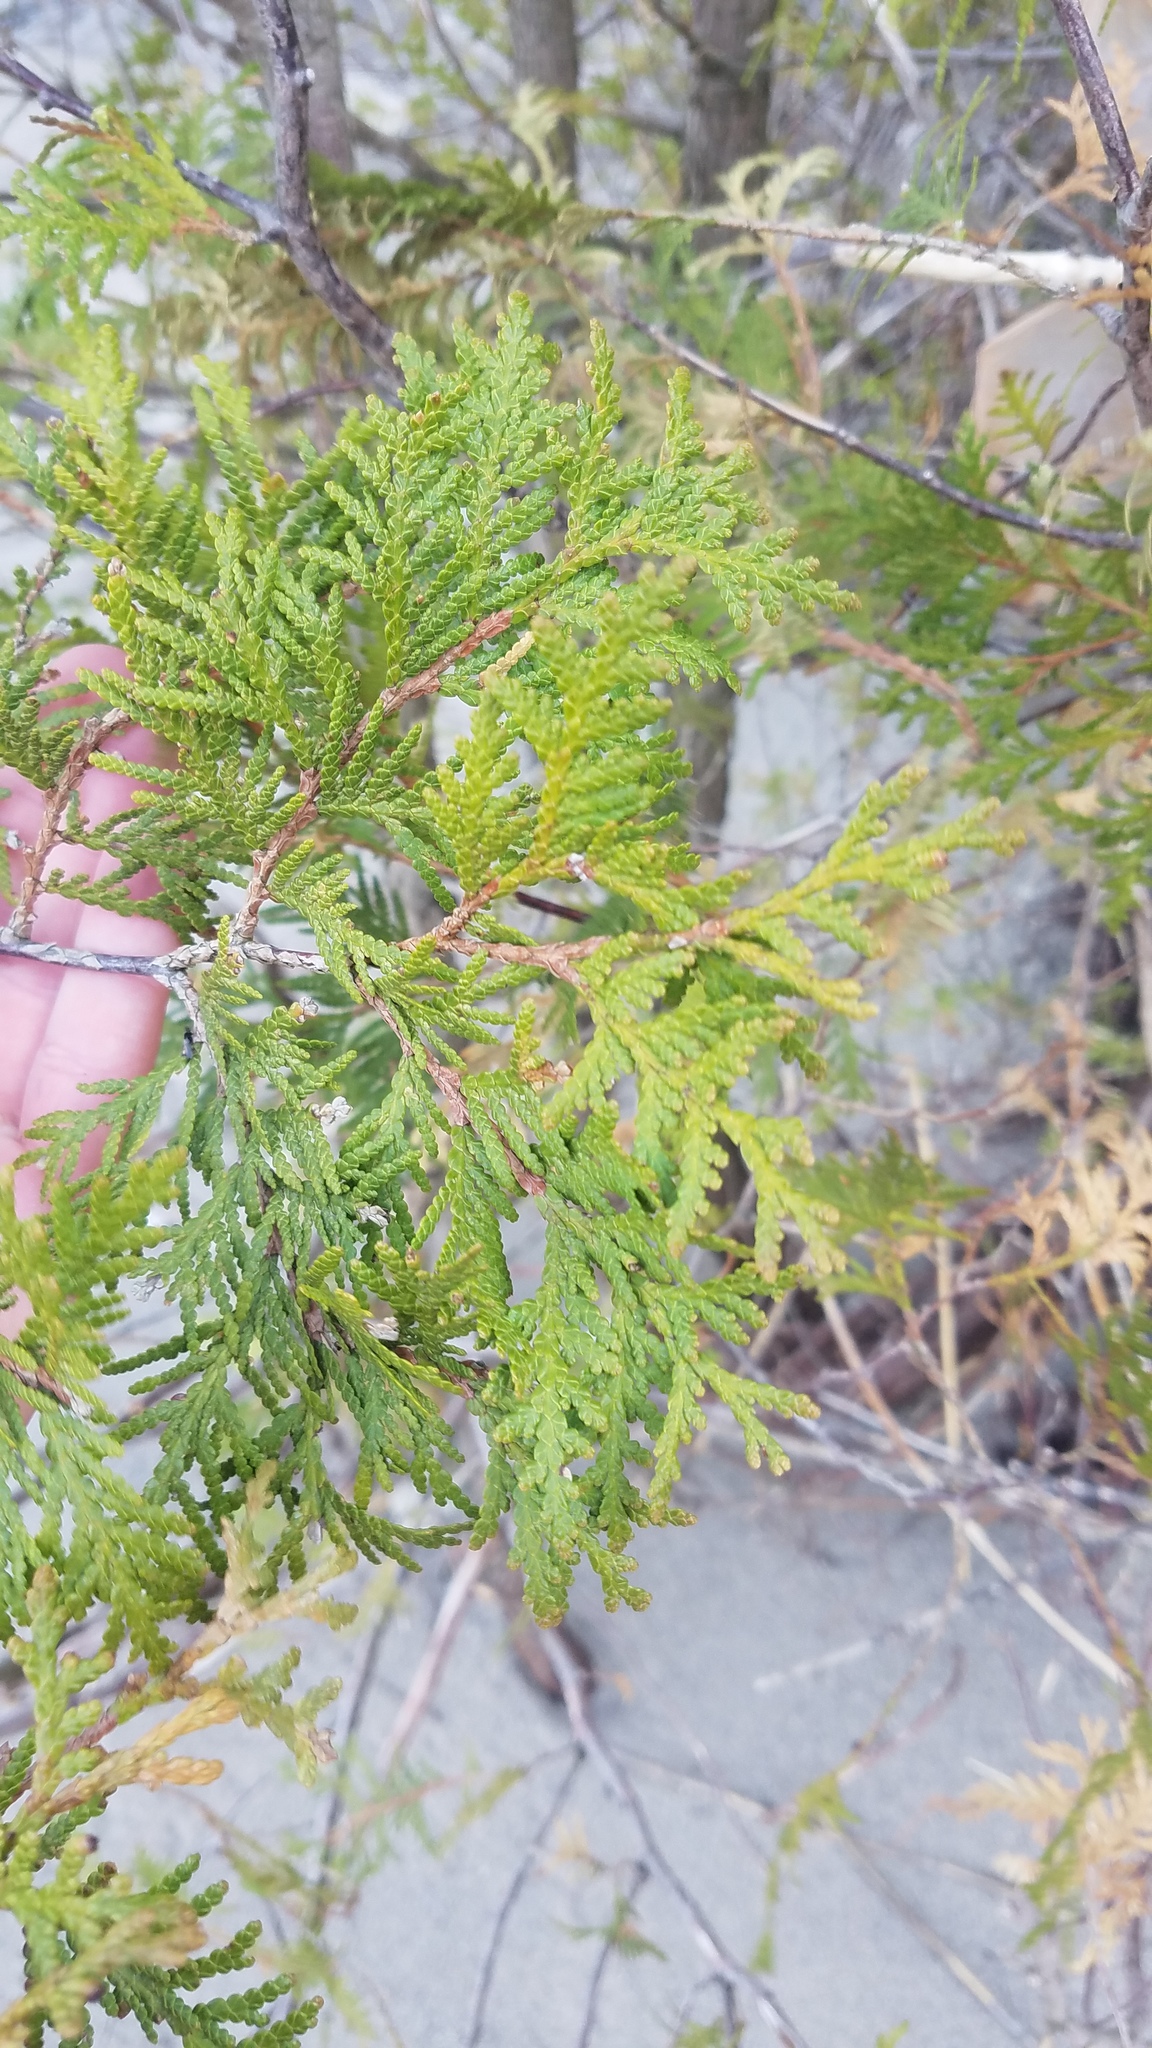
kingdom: Plantae
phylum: Tracheophyta
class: Pinopsida
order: Pinales
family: Cupressaceae
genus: Thuja
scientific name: Thuja occidentalis
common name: Northern white-cedar
